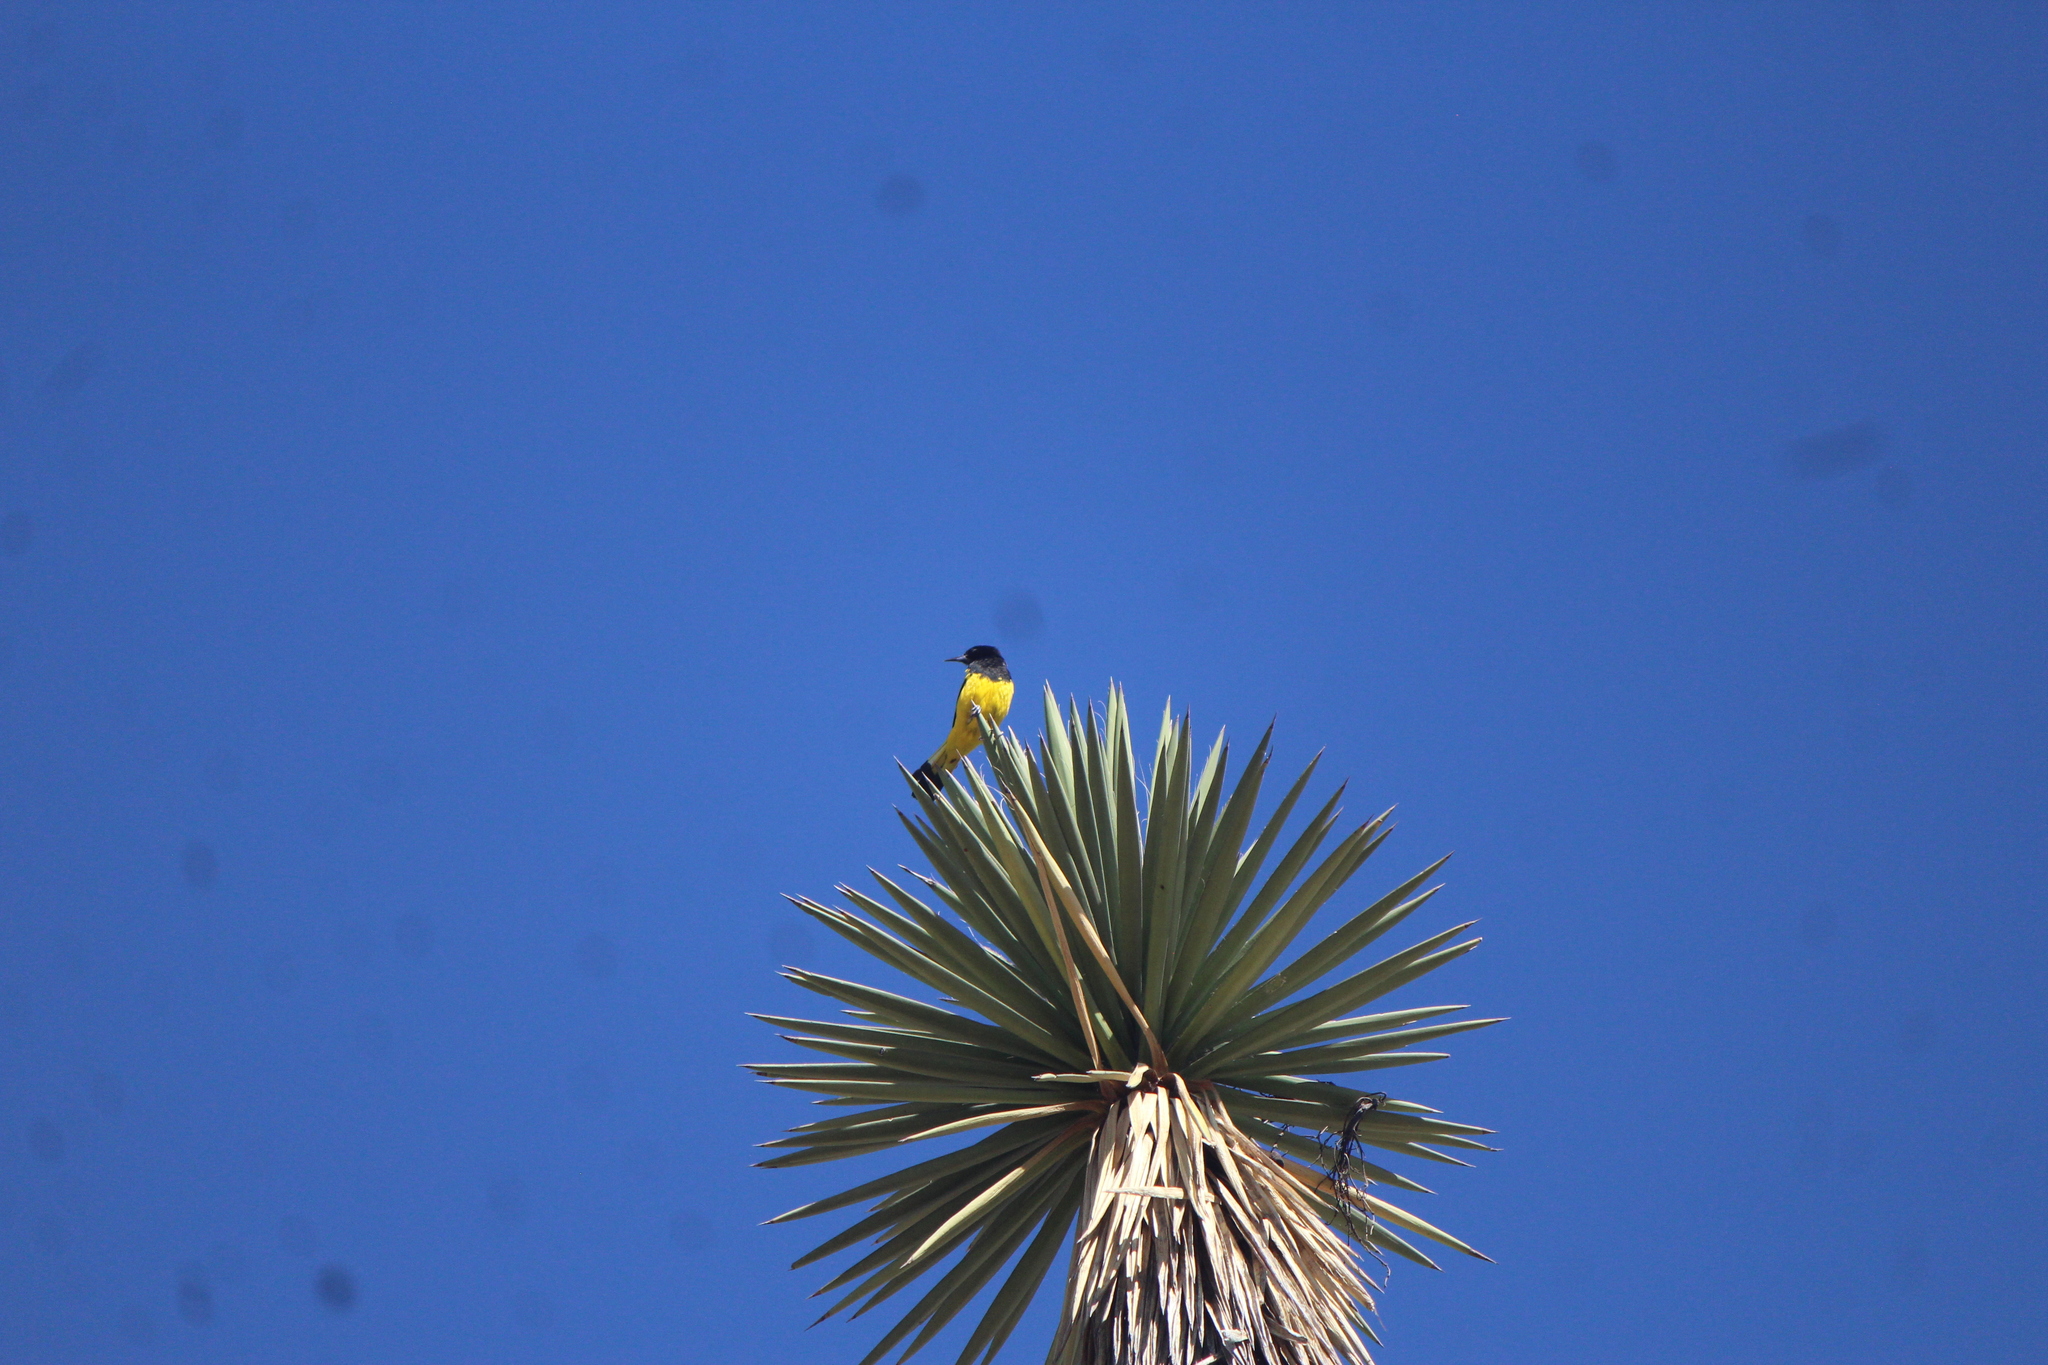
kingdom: Animalia
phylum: Chordata
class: Aves
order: Passeriformes
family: Icteridae
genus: Icterus
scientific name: Icterus parisorum
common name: Scott's oriole
